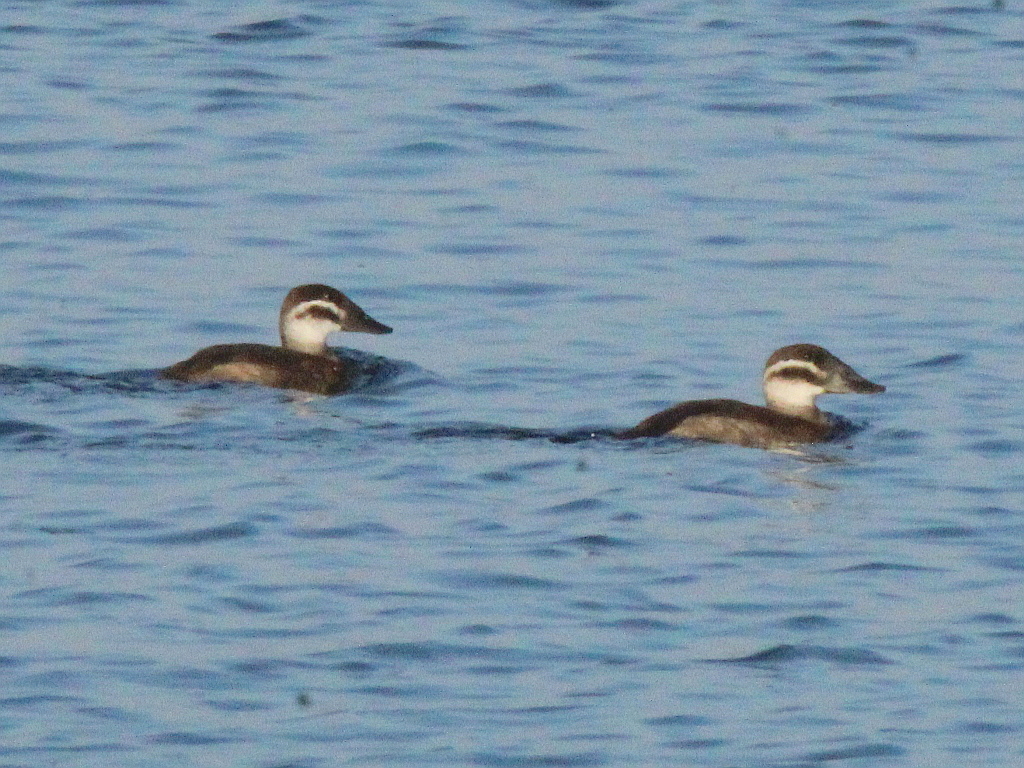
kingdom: Animalia
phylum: Chordata
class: Aves
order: Anseriformes
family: Anatidae
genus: Oxyura
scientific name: Oxyura leucocephala
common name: White-headed duck
